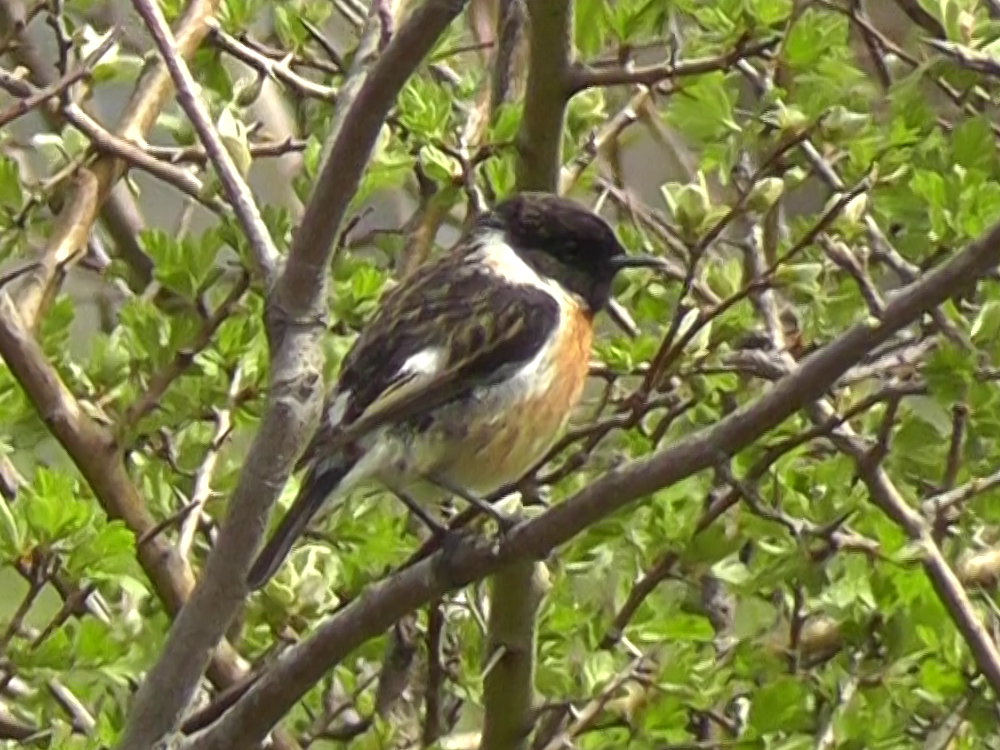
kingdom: Animalia
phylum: Chordata
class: Aves
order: Passeriformes
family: Muscicapidae
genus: Saxicola
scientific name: Saxicola rubicola
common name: European stonechat
